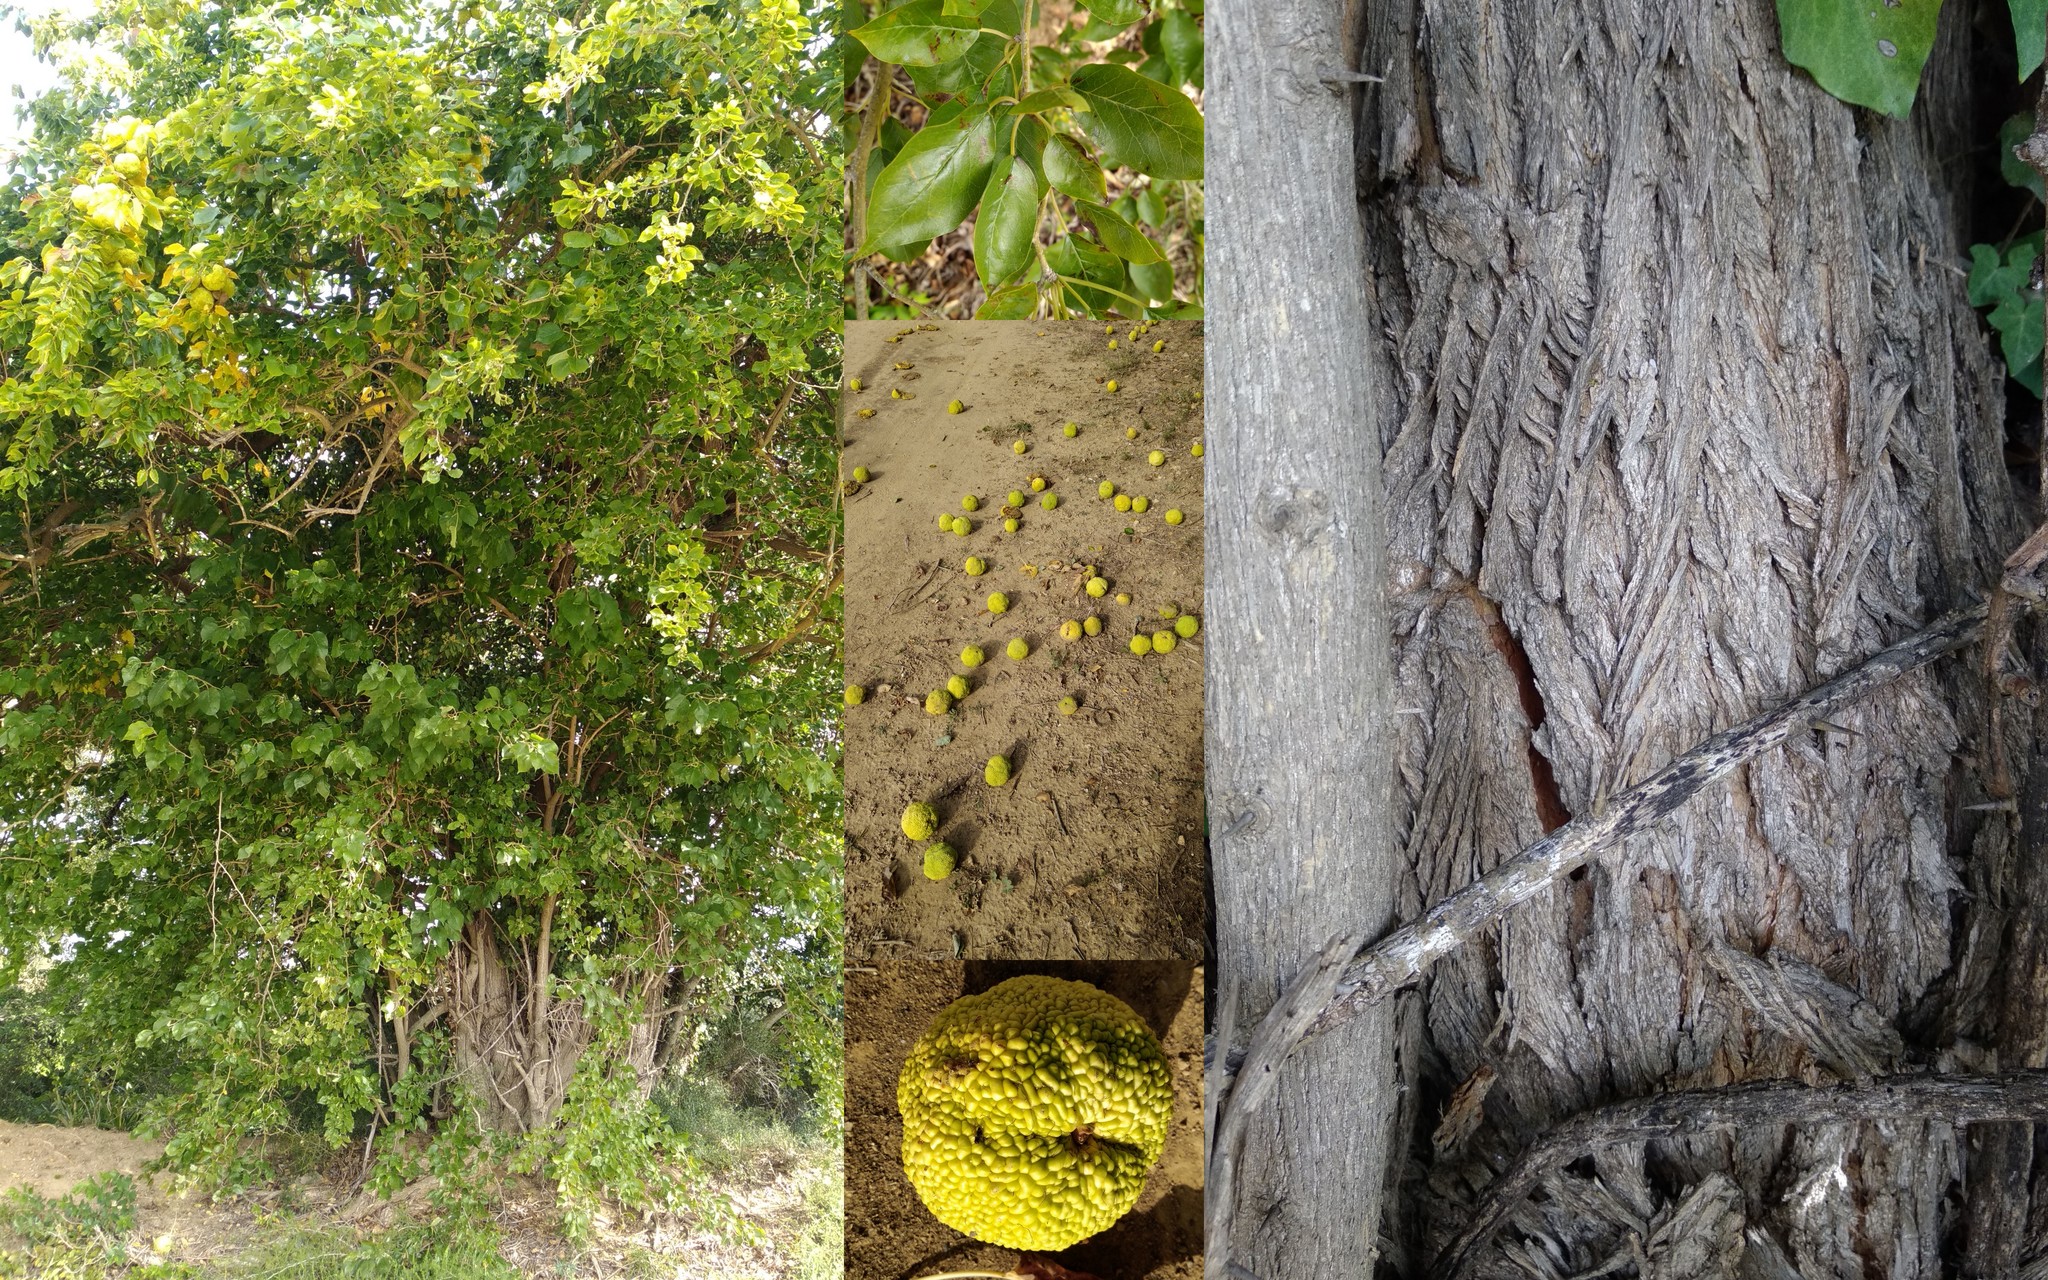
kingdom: Plantae
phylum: Tracheophyta
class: Magnoliopsida
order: Rosales
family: Moraceae
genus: Maclura
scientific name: Maclura pomifera
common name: Osage-orange
